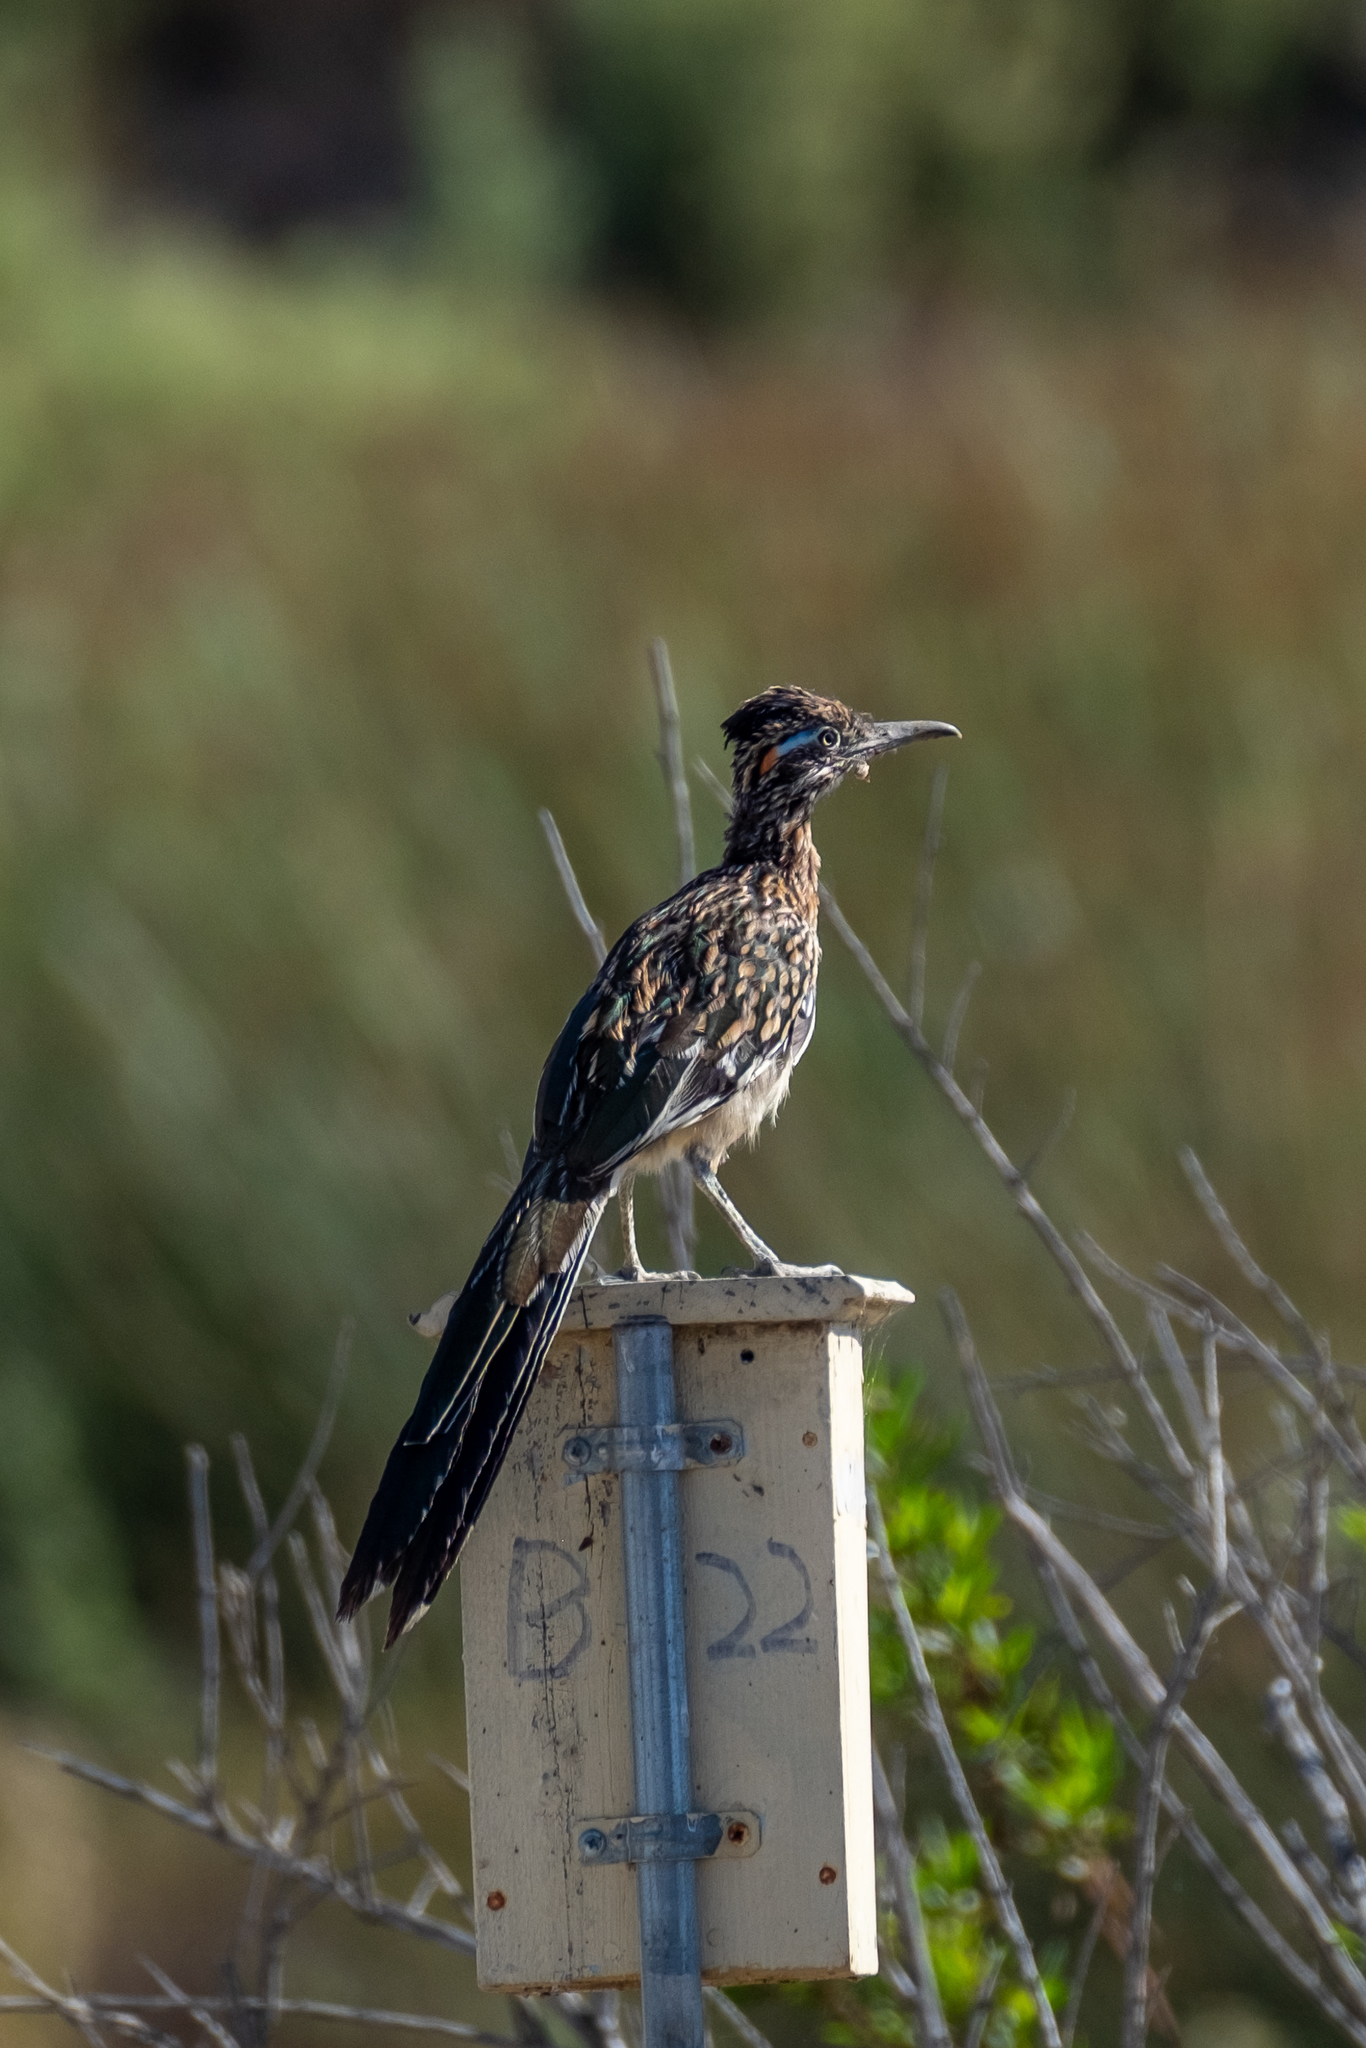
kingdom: Animalia
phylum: Chordata
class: Aves
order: Cuculiformes
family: Cuculidae
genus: Geococcyx
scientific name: Geococcyx californianus
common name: Greater roadrunner
